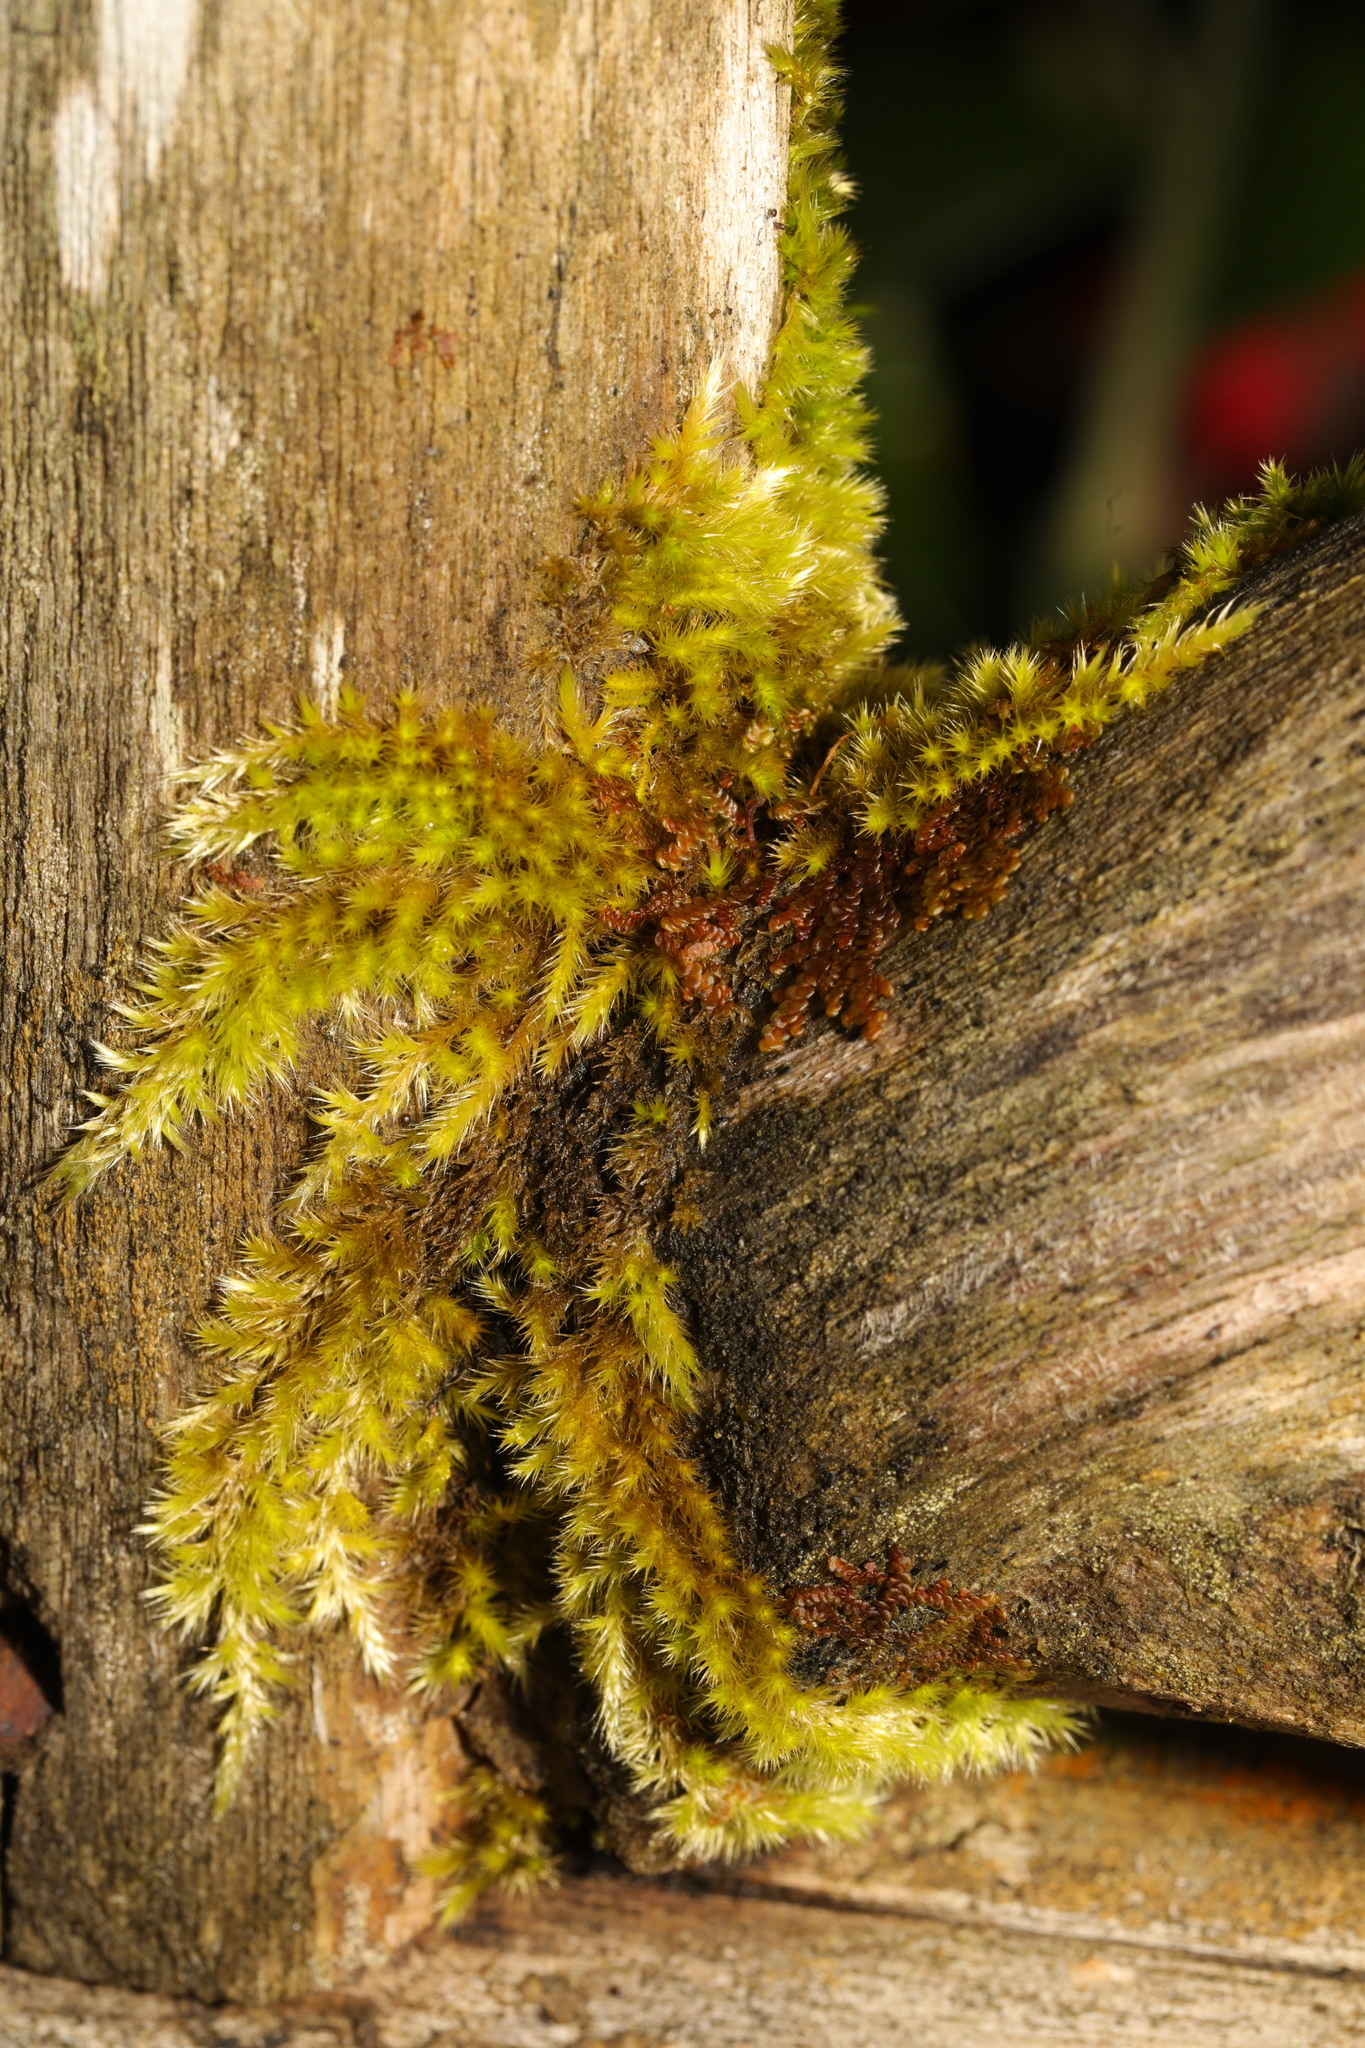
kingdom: Plantae
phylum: Bryophyta
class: Bryopsida
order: Hypnales
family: Brachytheciaceae
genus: Homalothecium
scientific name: Homalothecium sericeum
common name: Silky wall feather-moss
